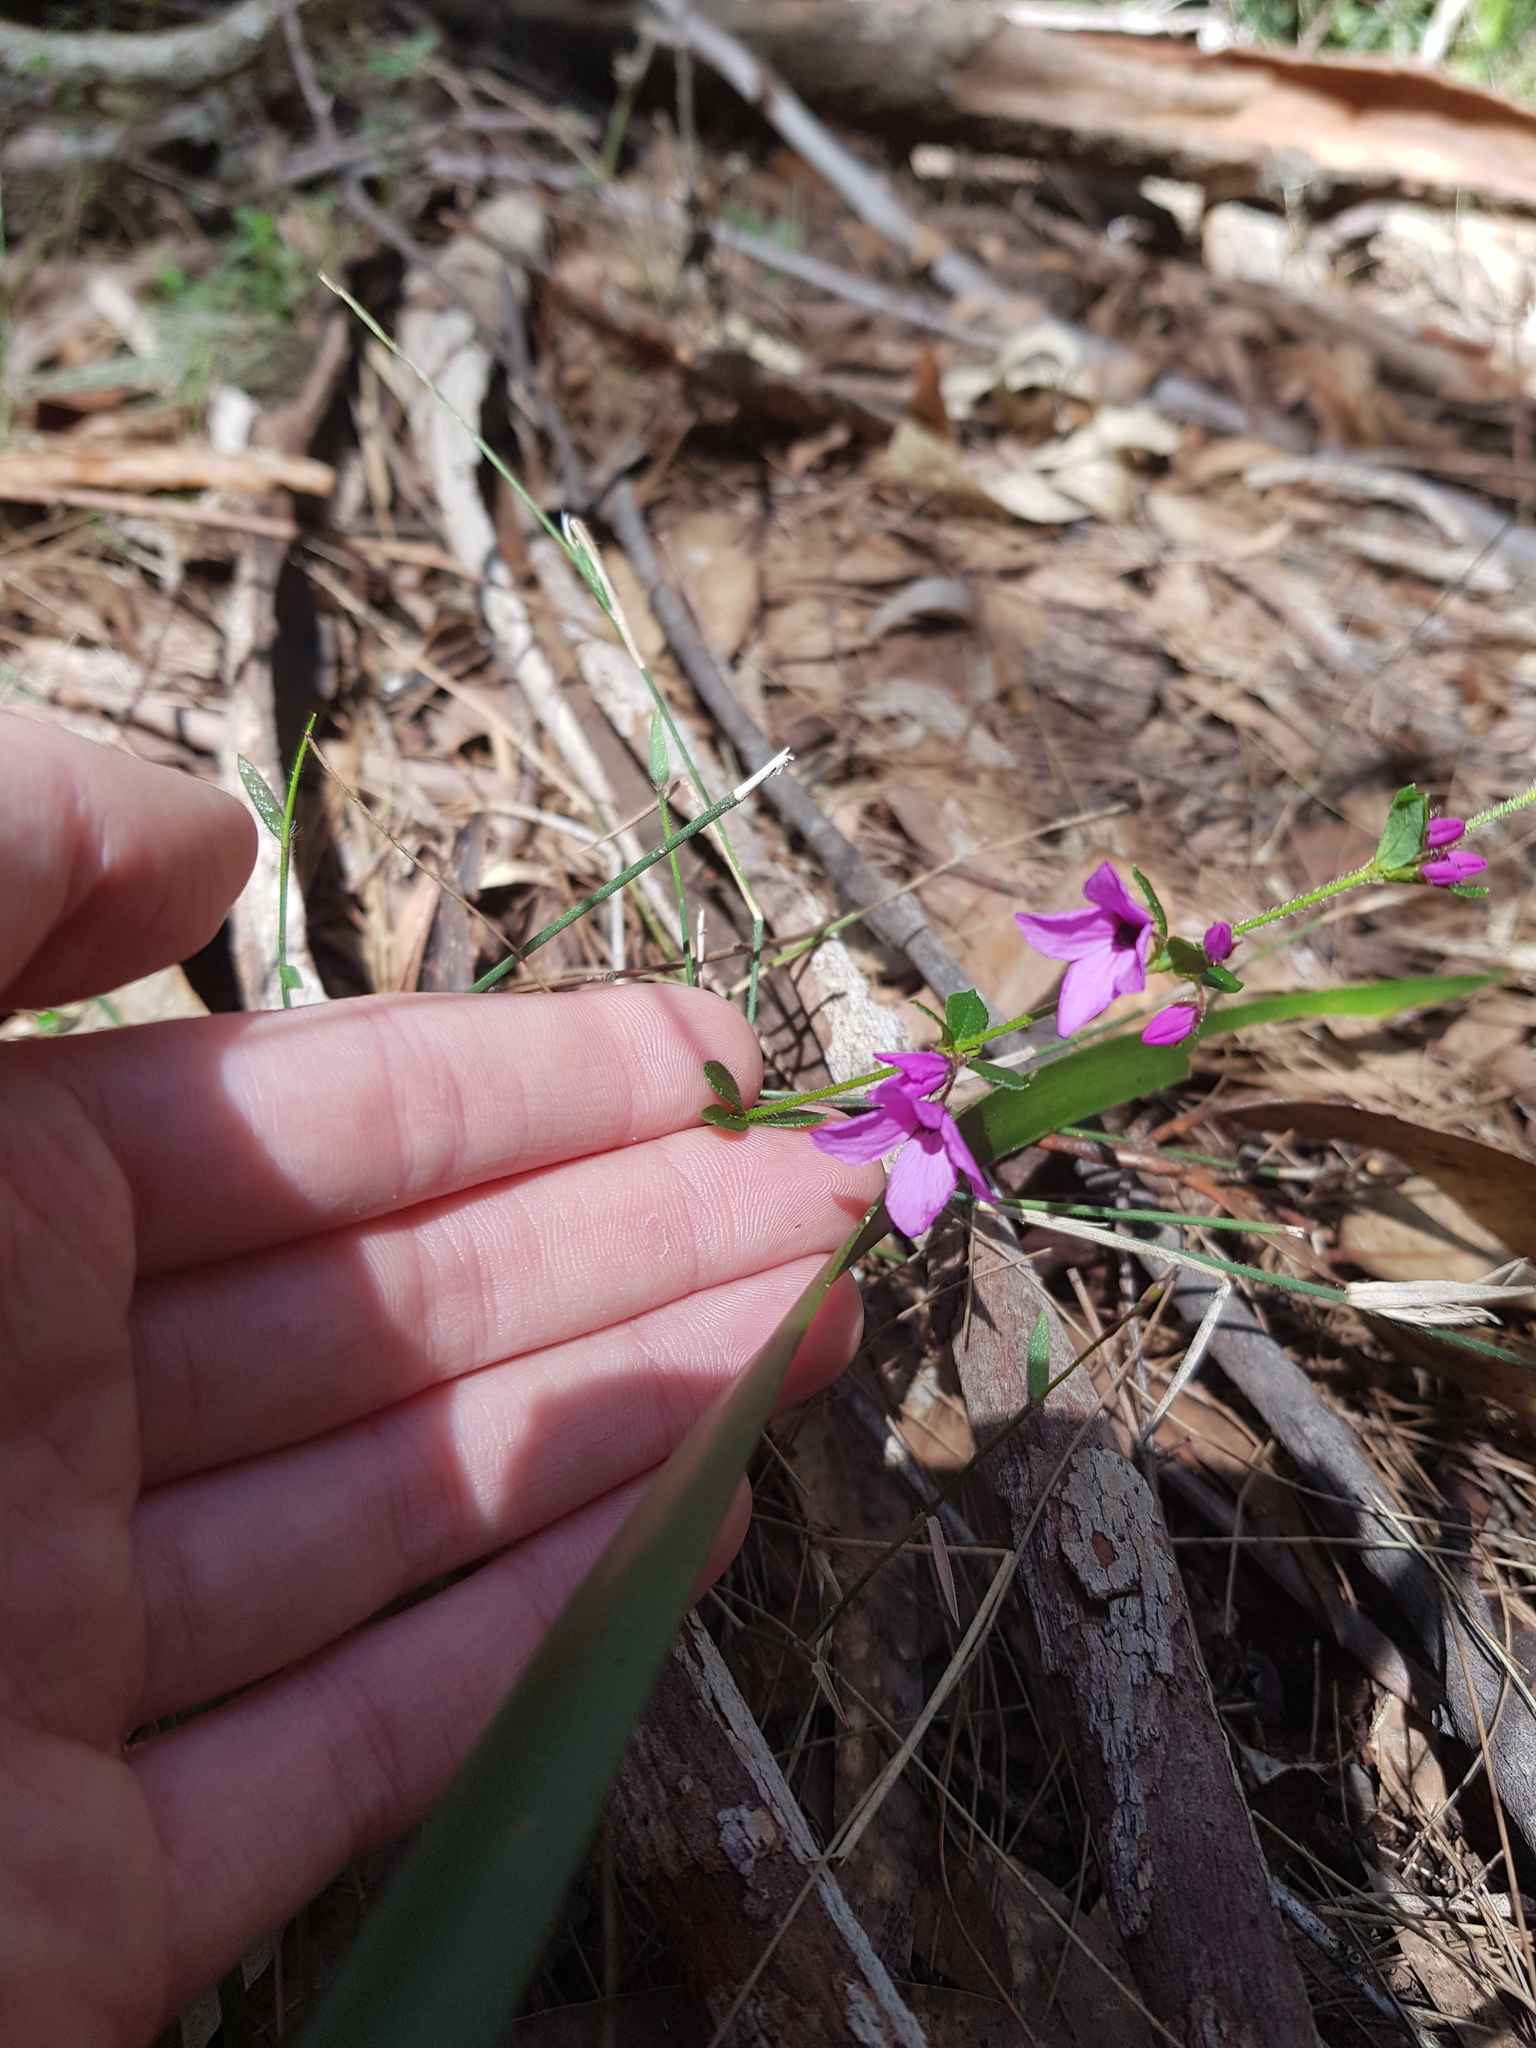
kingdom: Plantae
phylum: Tracheophyta
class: Magnoliopsida
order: Oxalidales
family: Elaeocarpaceae
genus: Tetratheca
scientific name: Tetratheca thymifolia
